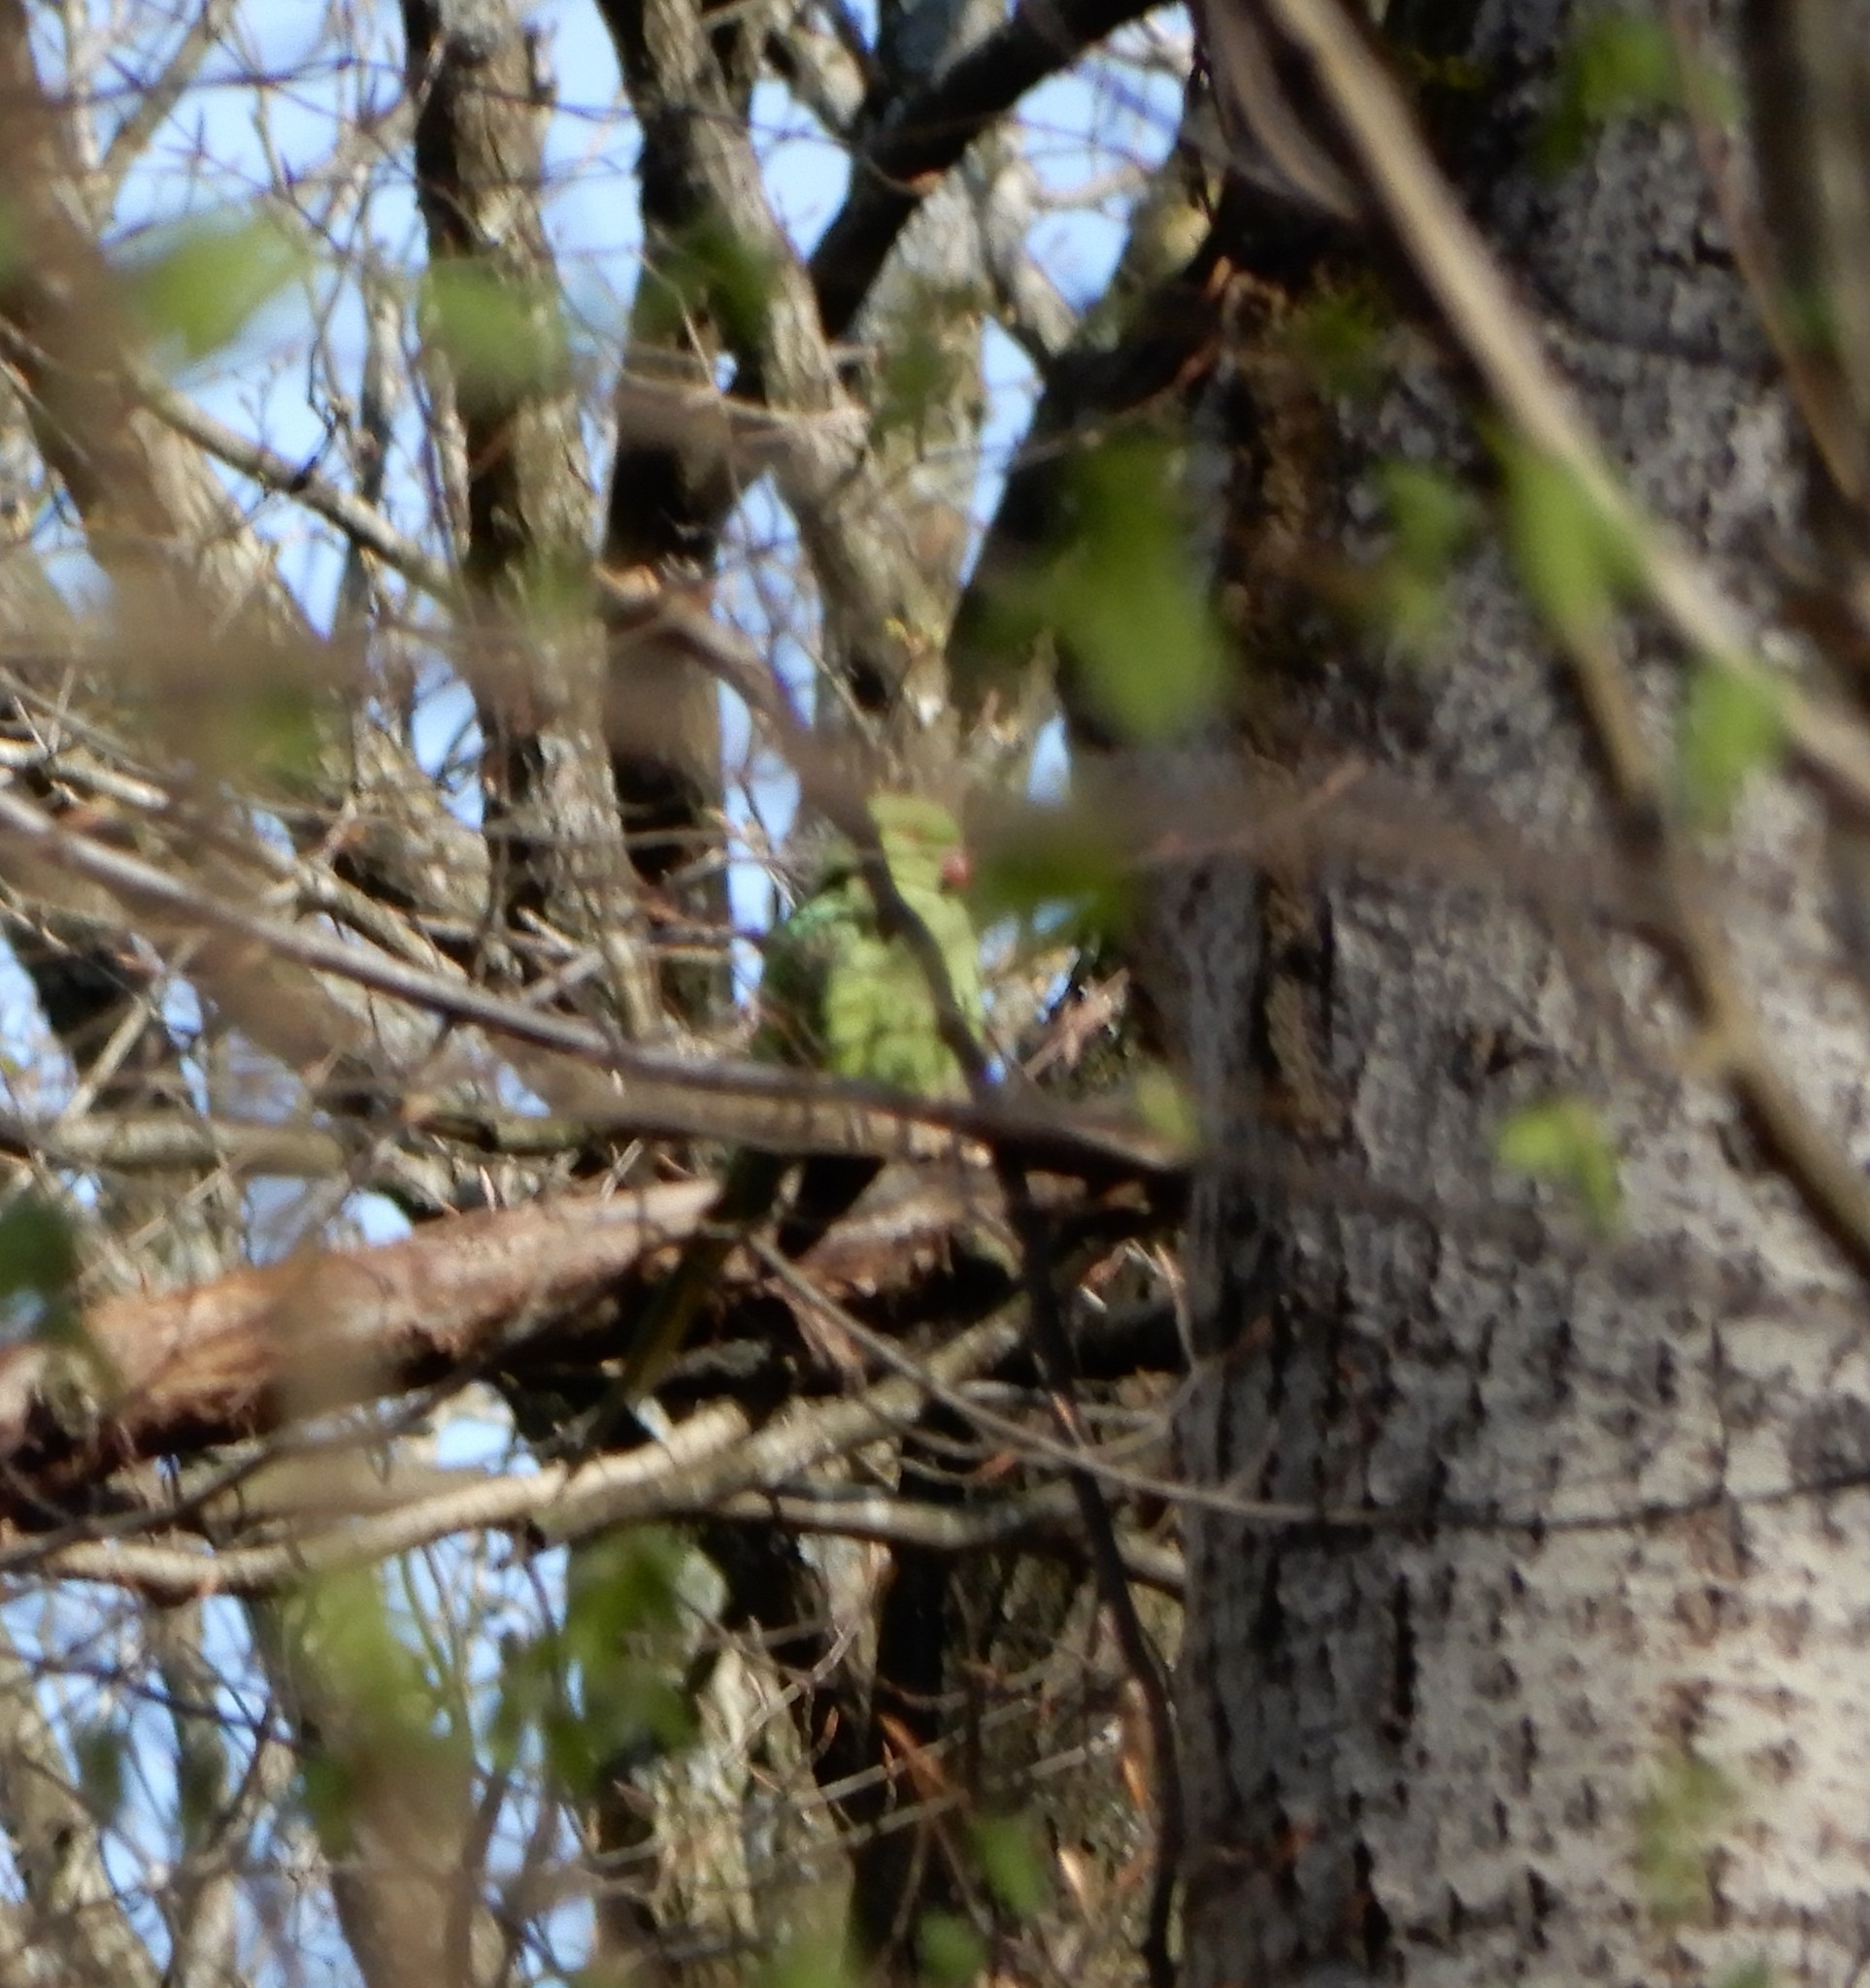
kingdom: Animalia
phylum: Chordata
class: Aves
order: Psittaciformes
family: Psittacidae
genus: Psittacula
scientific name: Psittacula krameri
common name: Rose-ringed parakeet
